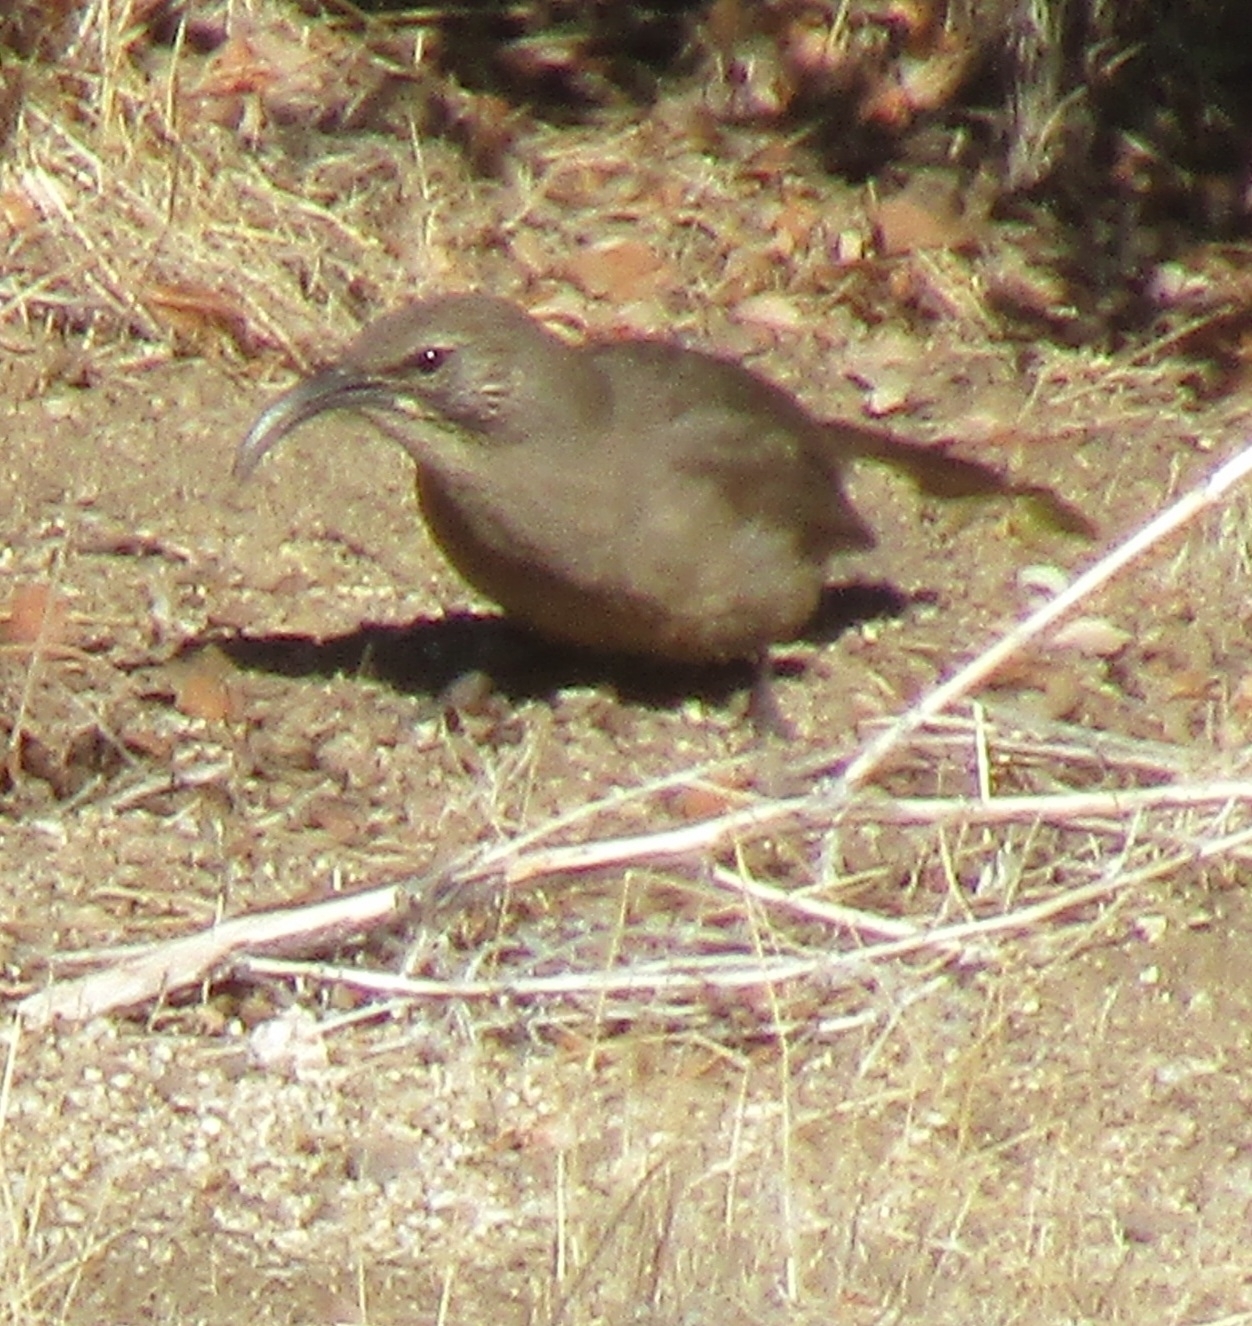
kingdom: Animalia
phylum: Chordata
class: Aves
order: Passeriformes
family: Mimidae
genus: Toxostoma
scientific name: Toxostoma redivivum
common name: California thrasher
